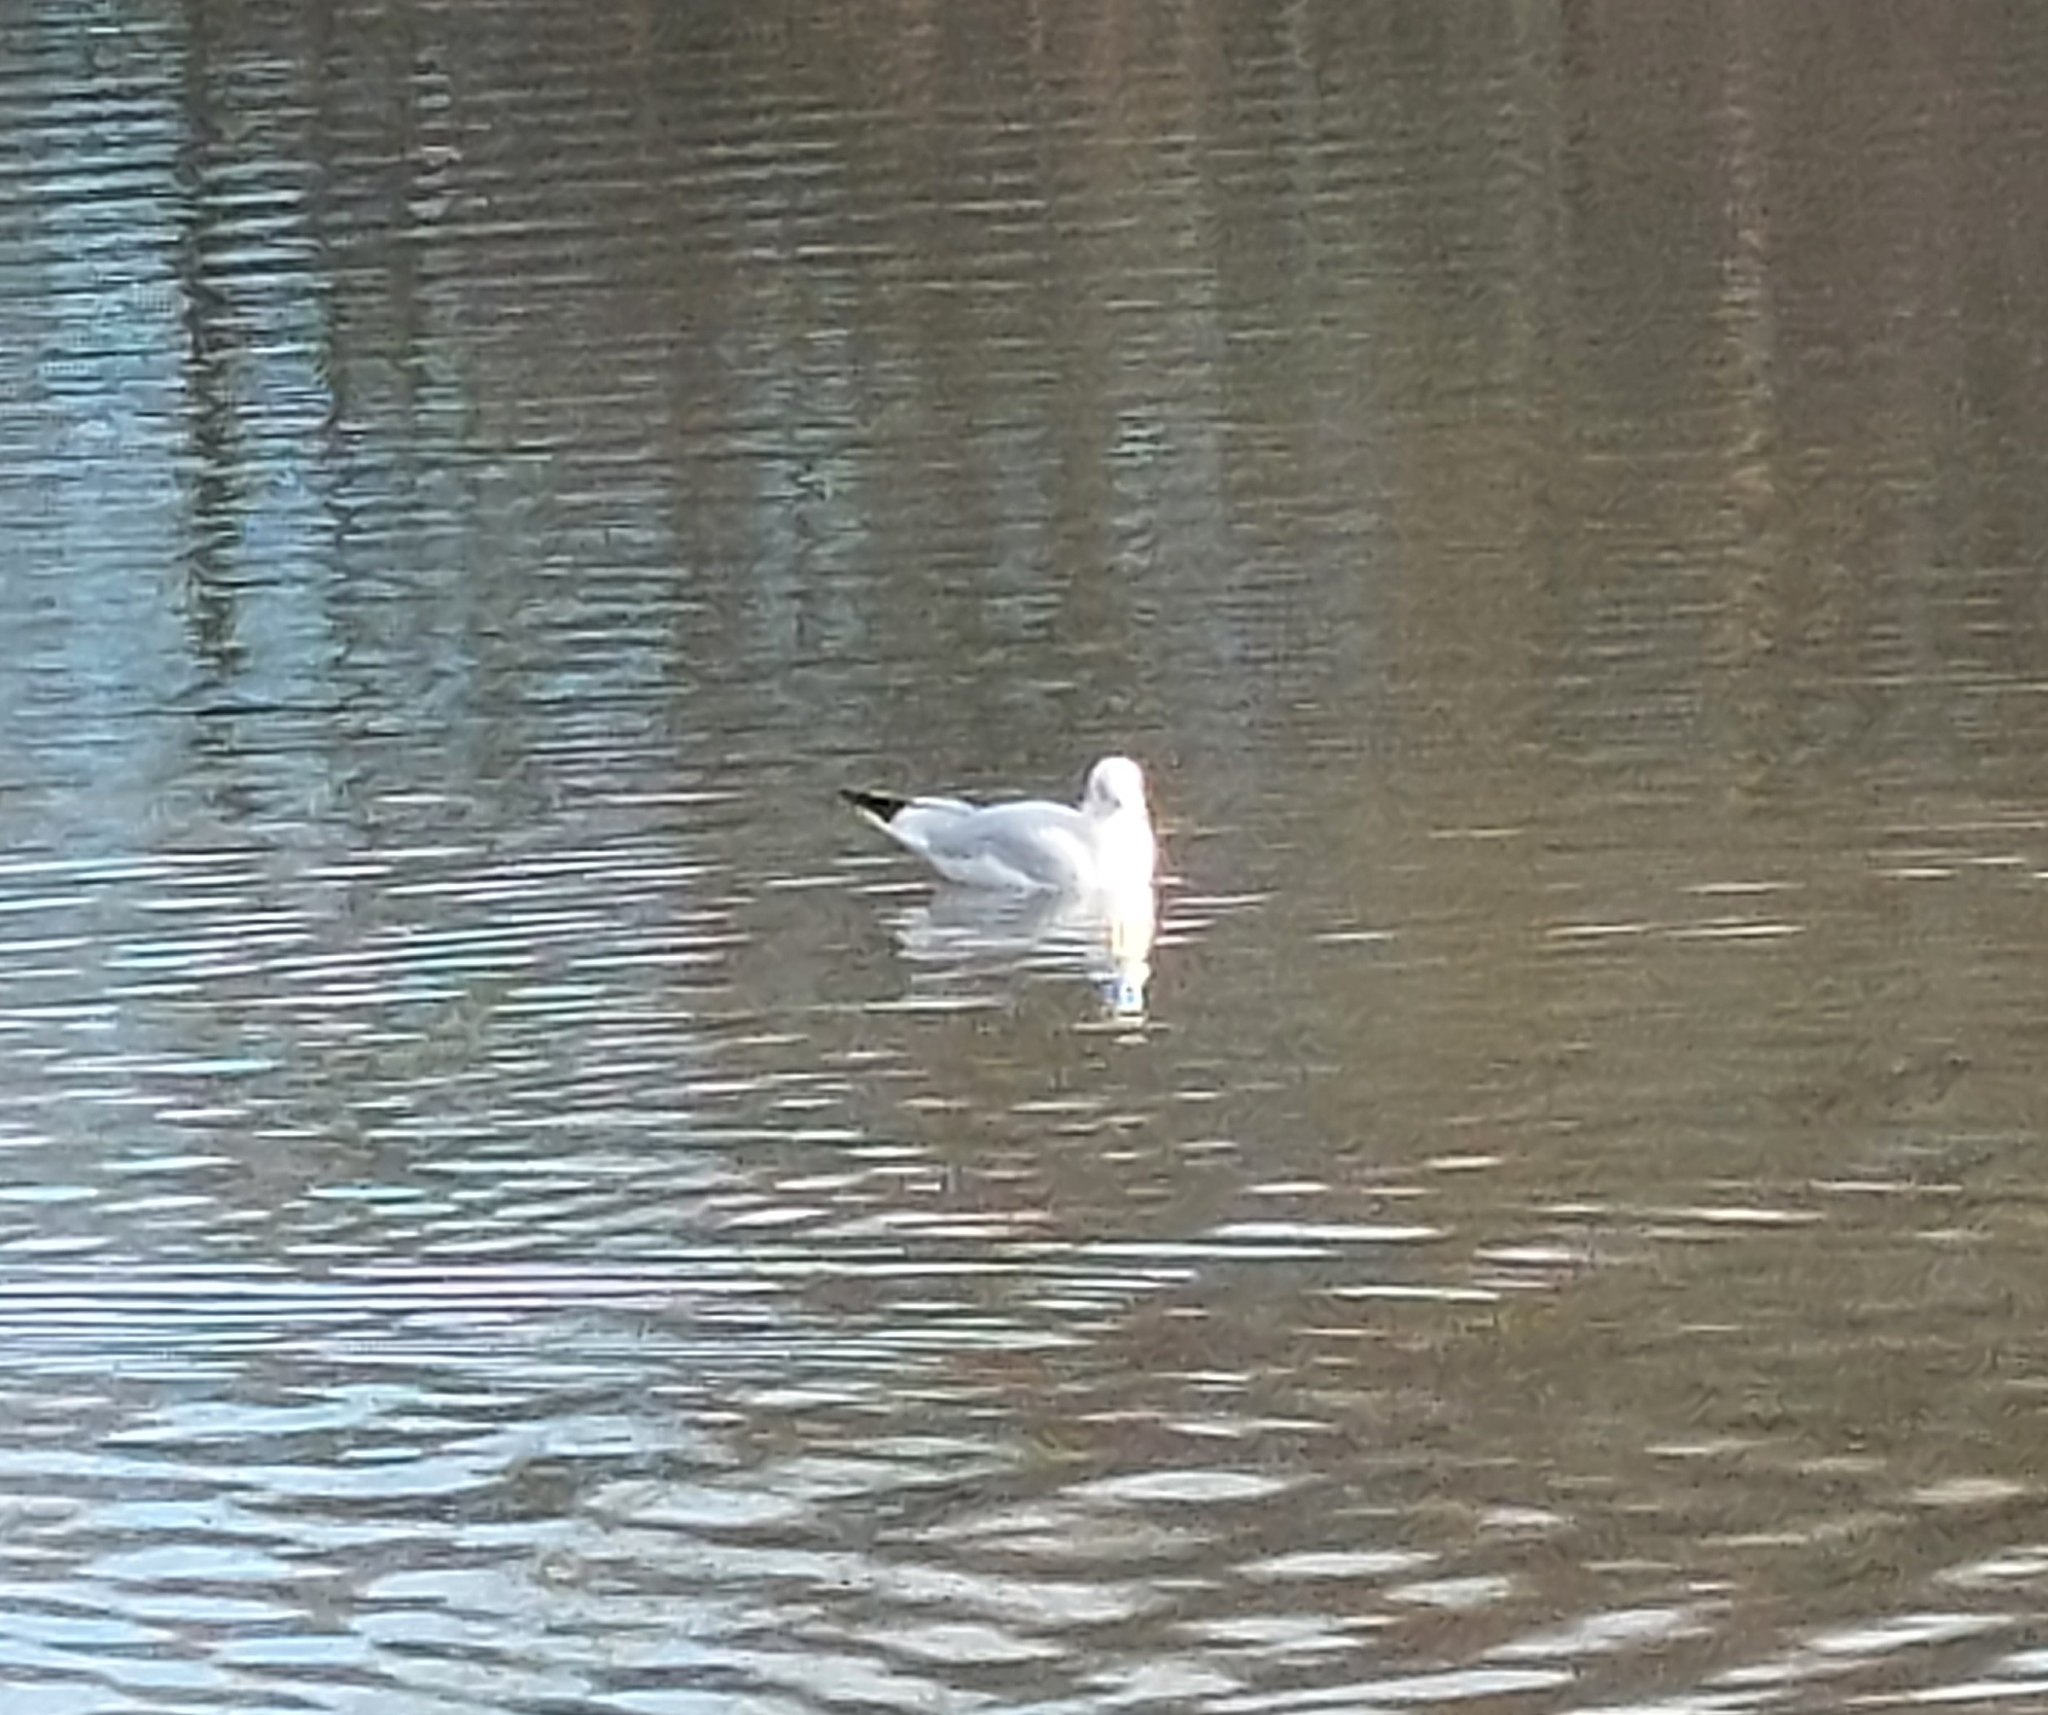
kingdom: Animalia
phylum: Chordata
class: Aves
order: Charadriiformes
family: Laridae
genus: Chroicocephalus
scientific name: Chroicocephalus ridibundus
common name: Black-headed gull
